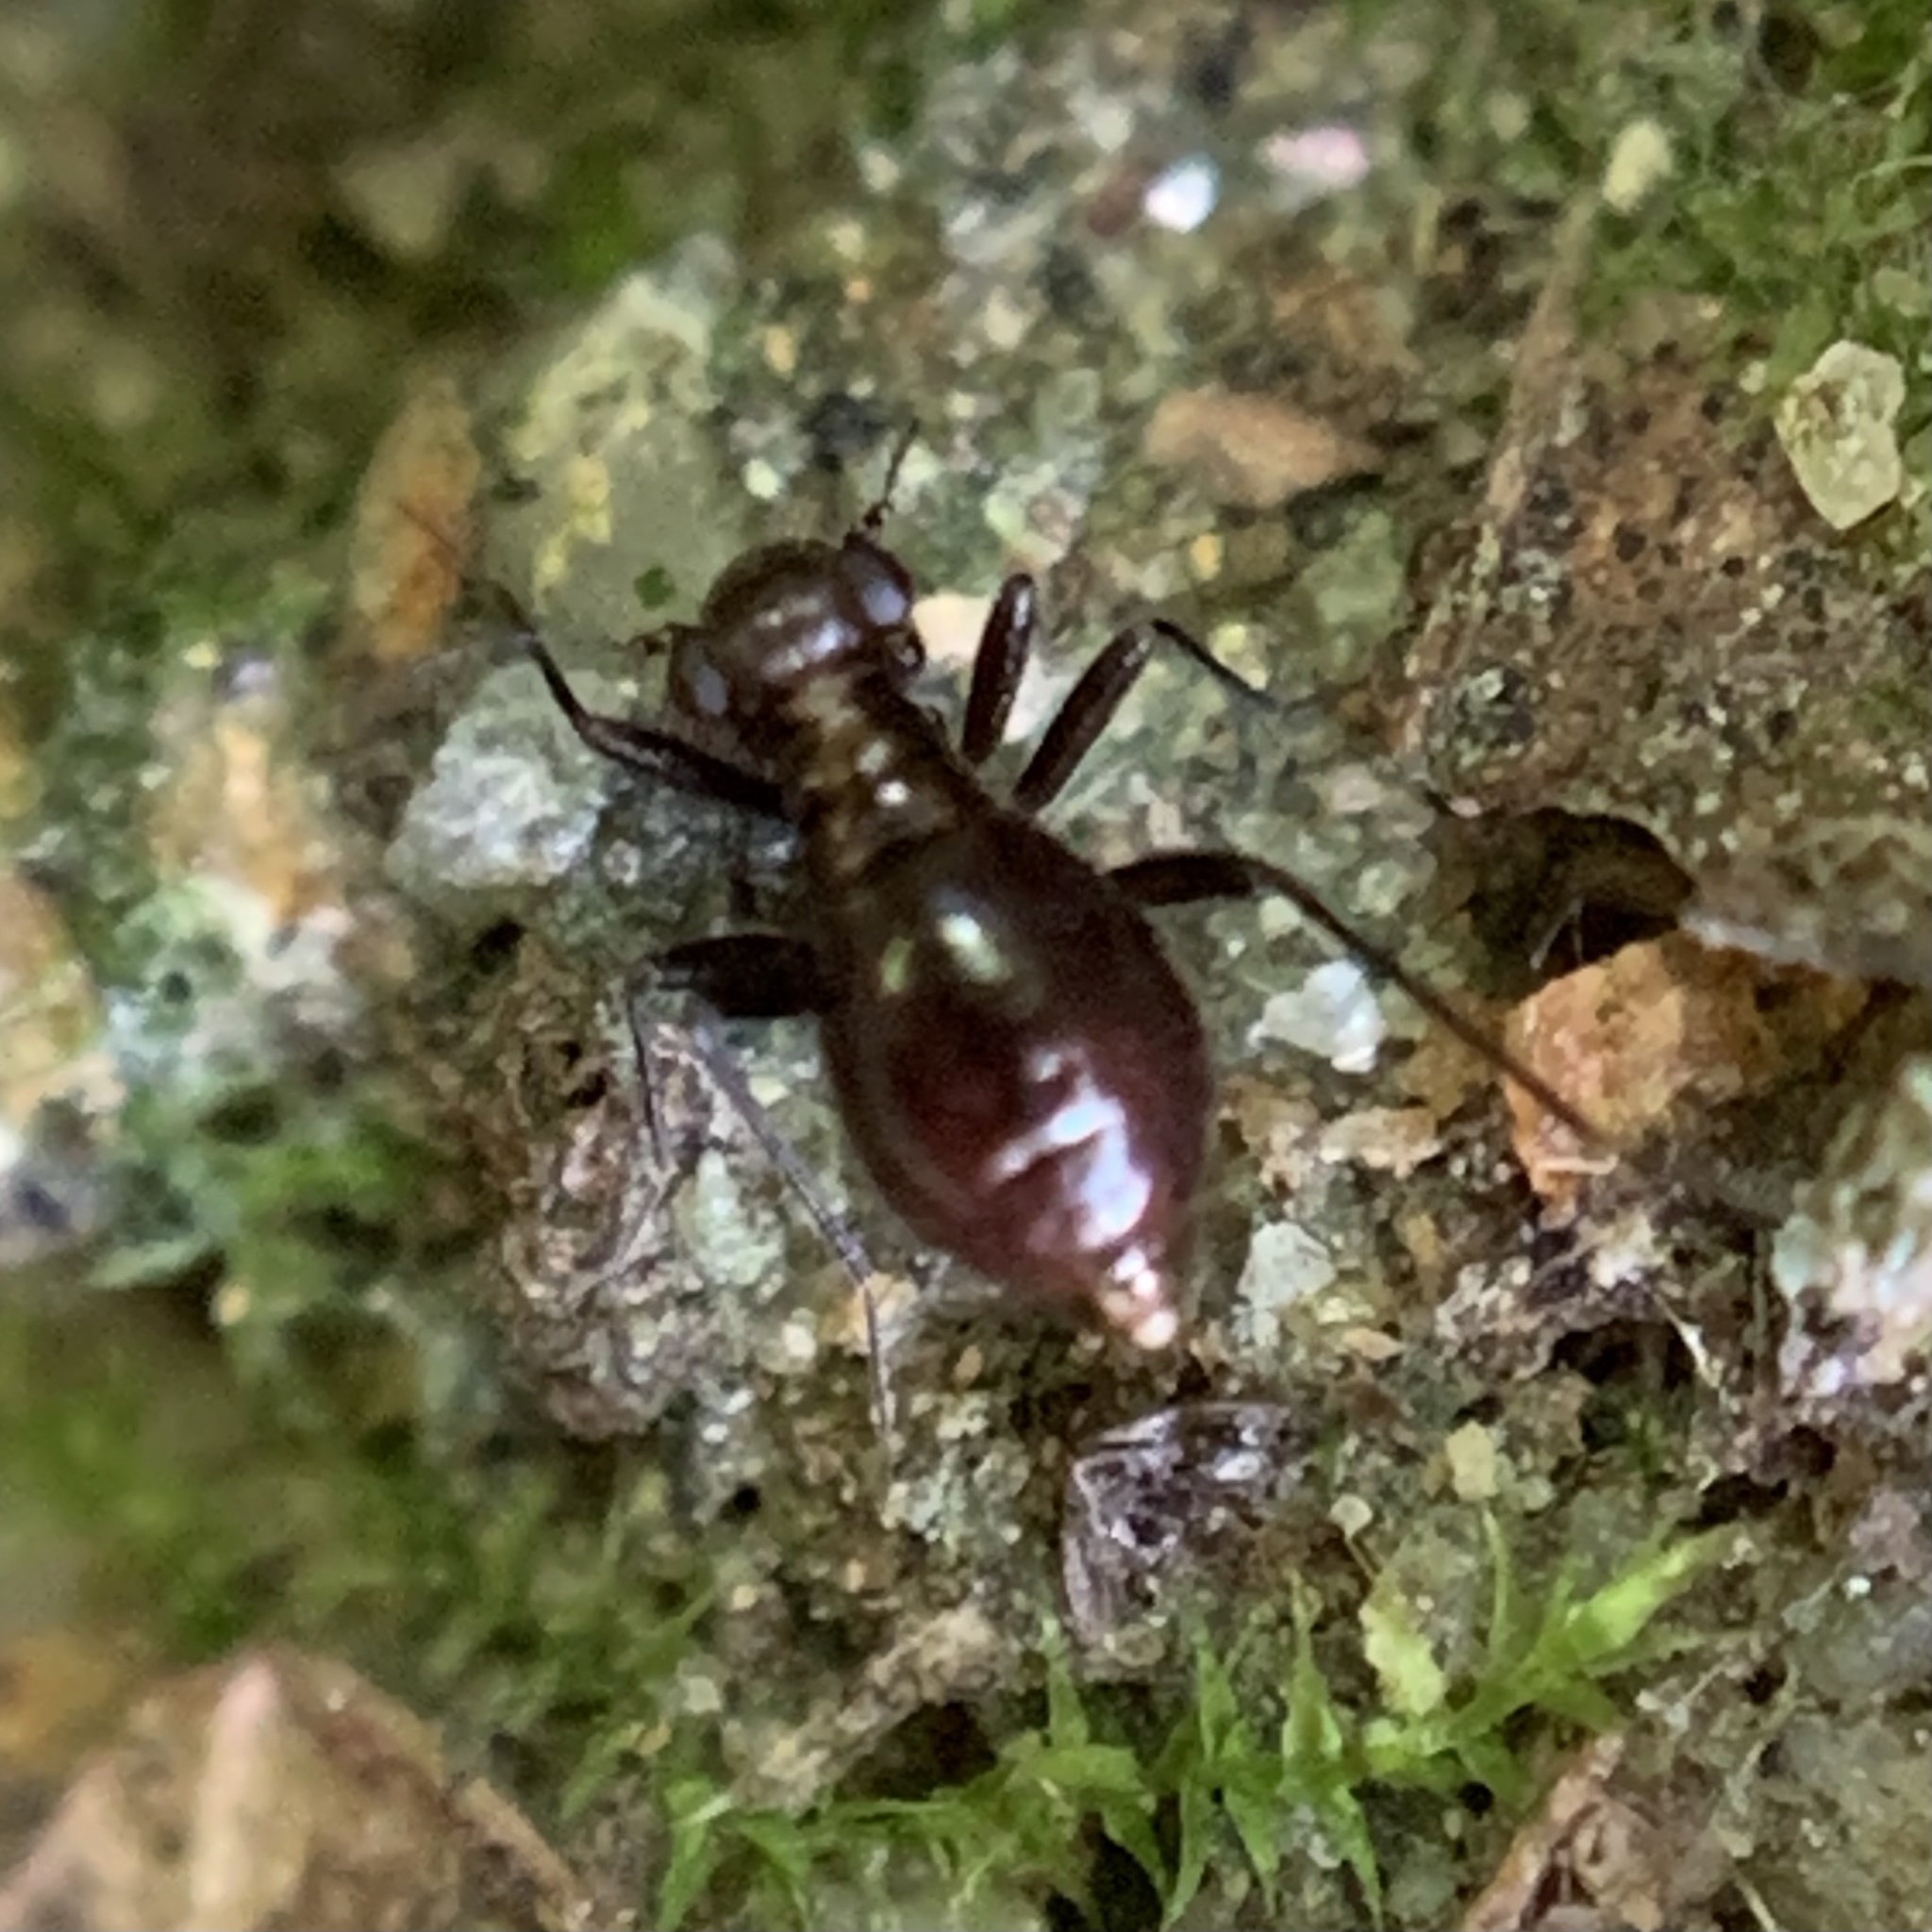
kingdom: Animalia
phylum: Arthropoda
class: Insecta
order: Psocodea
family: Epipsocidae
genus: Bertkauia
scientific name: Bertkauia lucifuga
